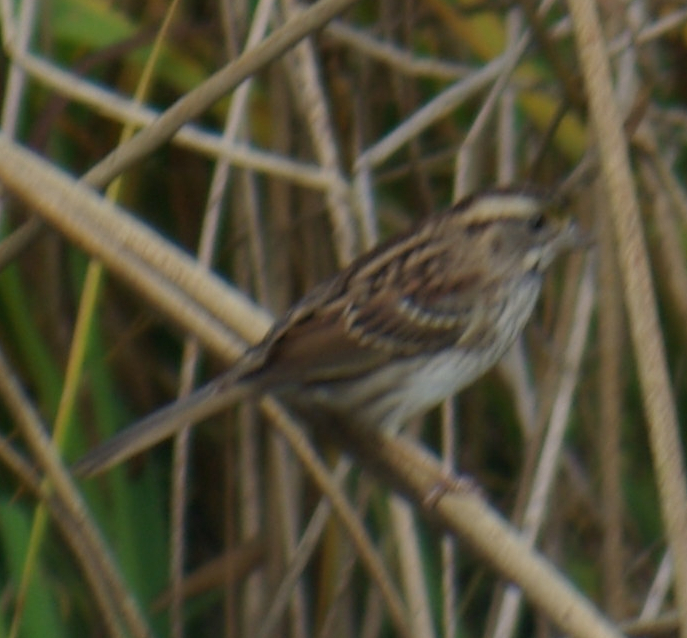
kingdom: Animalia
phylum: Chordata
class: Aves
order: Passeriformes
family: Passerellidae
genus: Zonotrichia
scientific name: Zonotrichia albicollis
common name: White-throated sparrow
